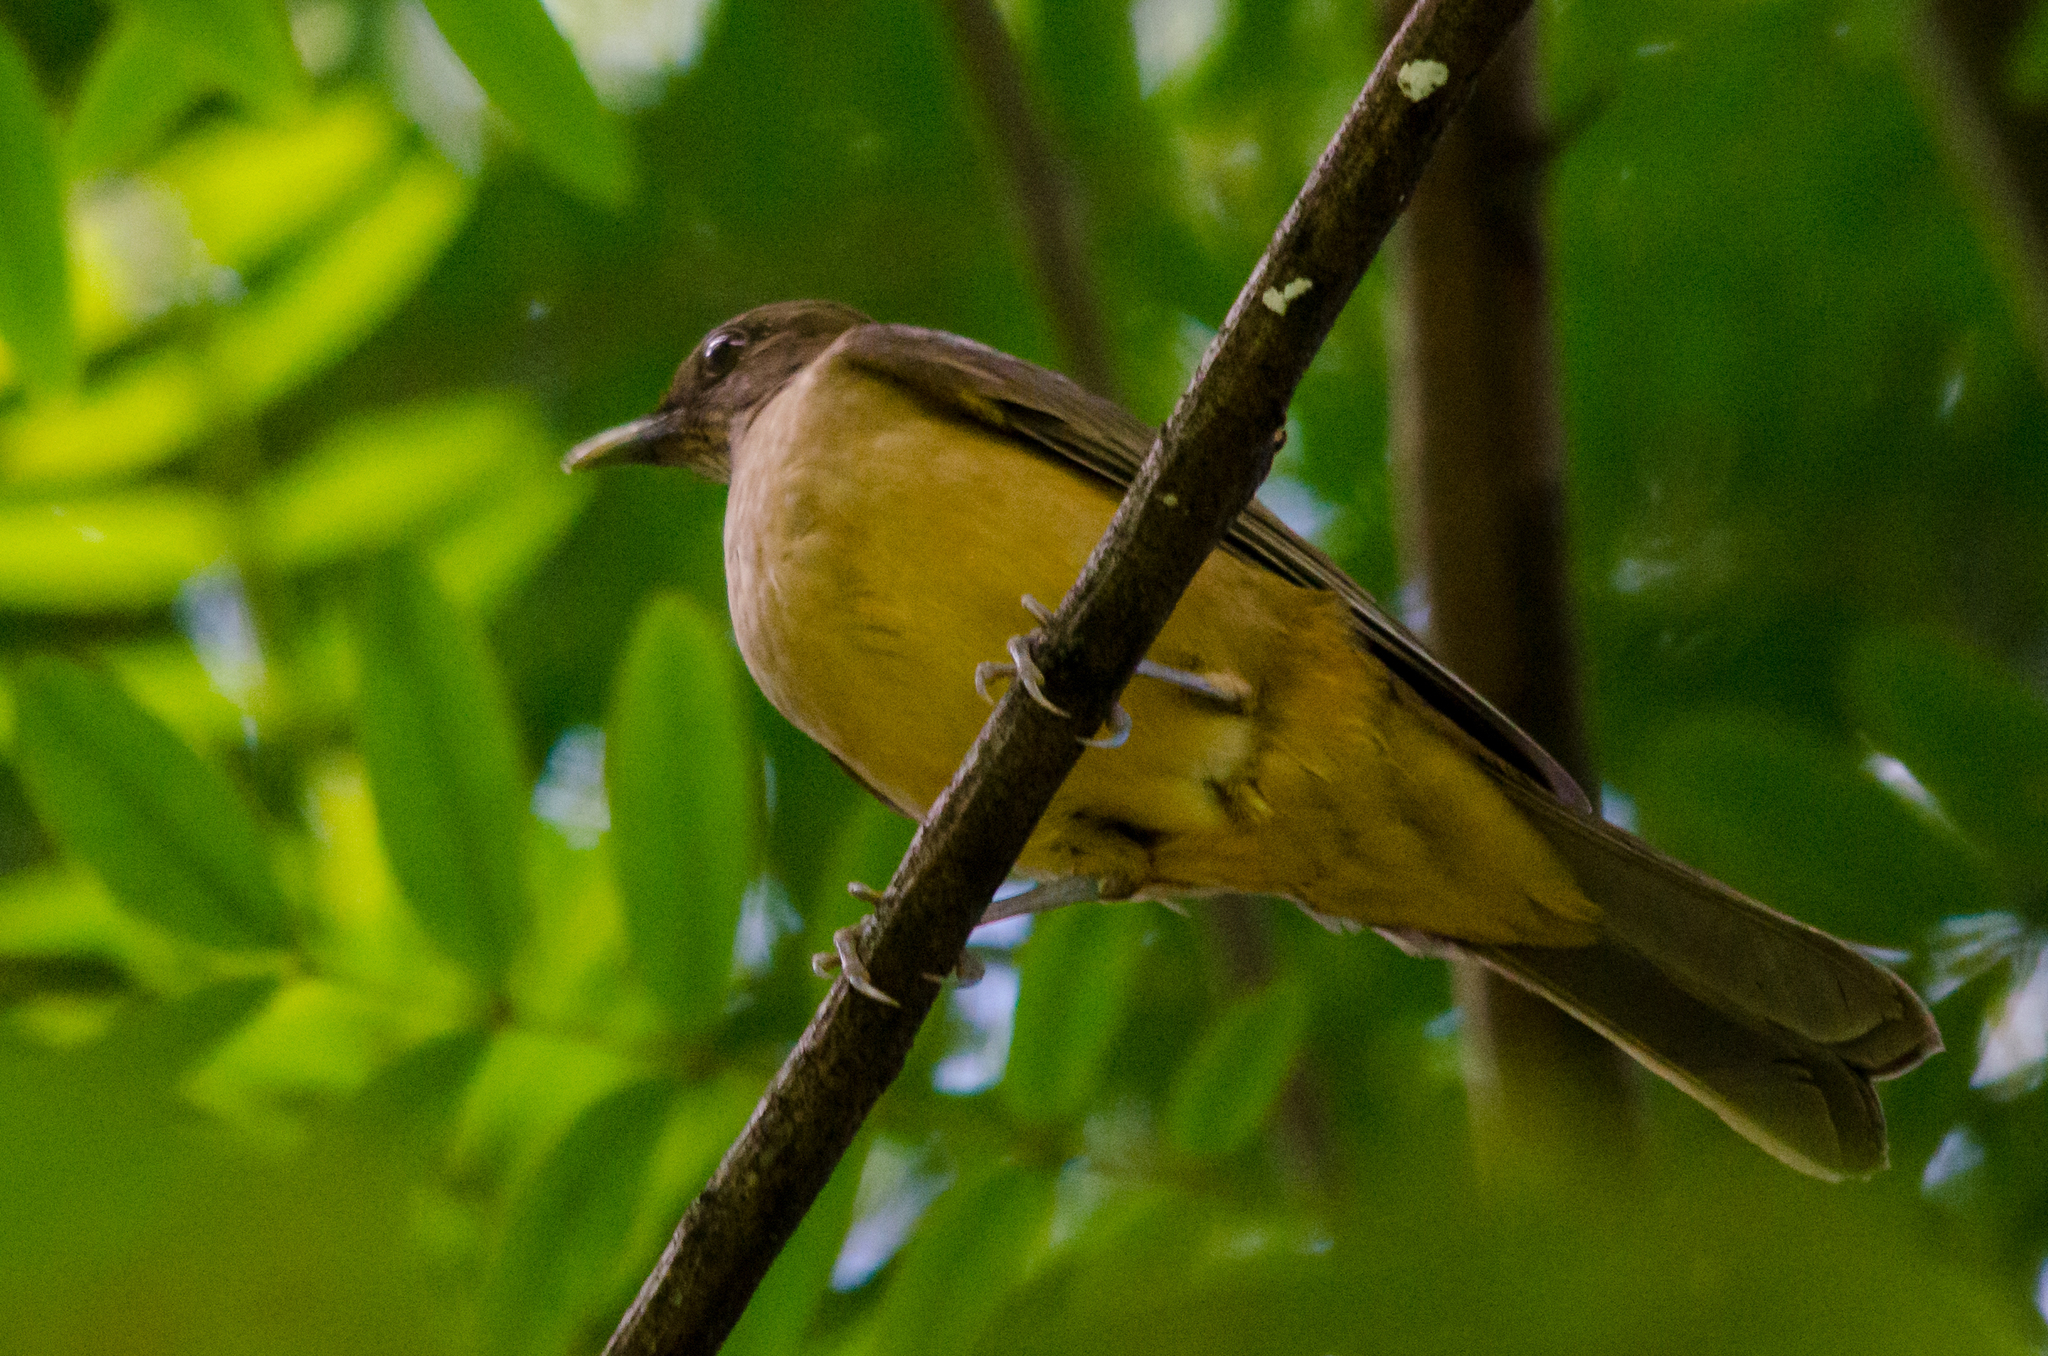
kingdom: Animalia
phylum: Chordata
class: Aves
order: Passeriformes
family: Turdidae
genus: Turdus
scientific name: Turdus grayi
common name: Clay-colored thrush
